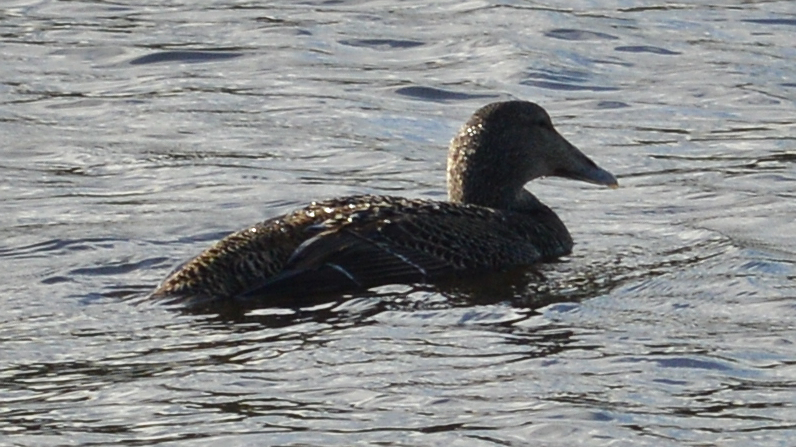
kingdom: Animalia
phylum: Chordata
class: Aves
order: Anseriformes
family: Anatidae
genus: Somateria
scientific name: Somateria mollissima
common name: Common eider
